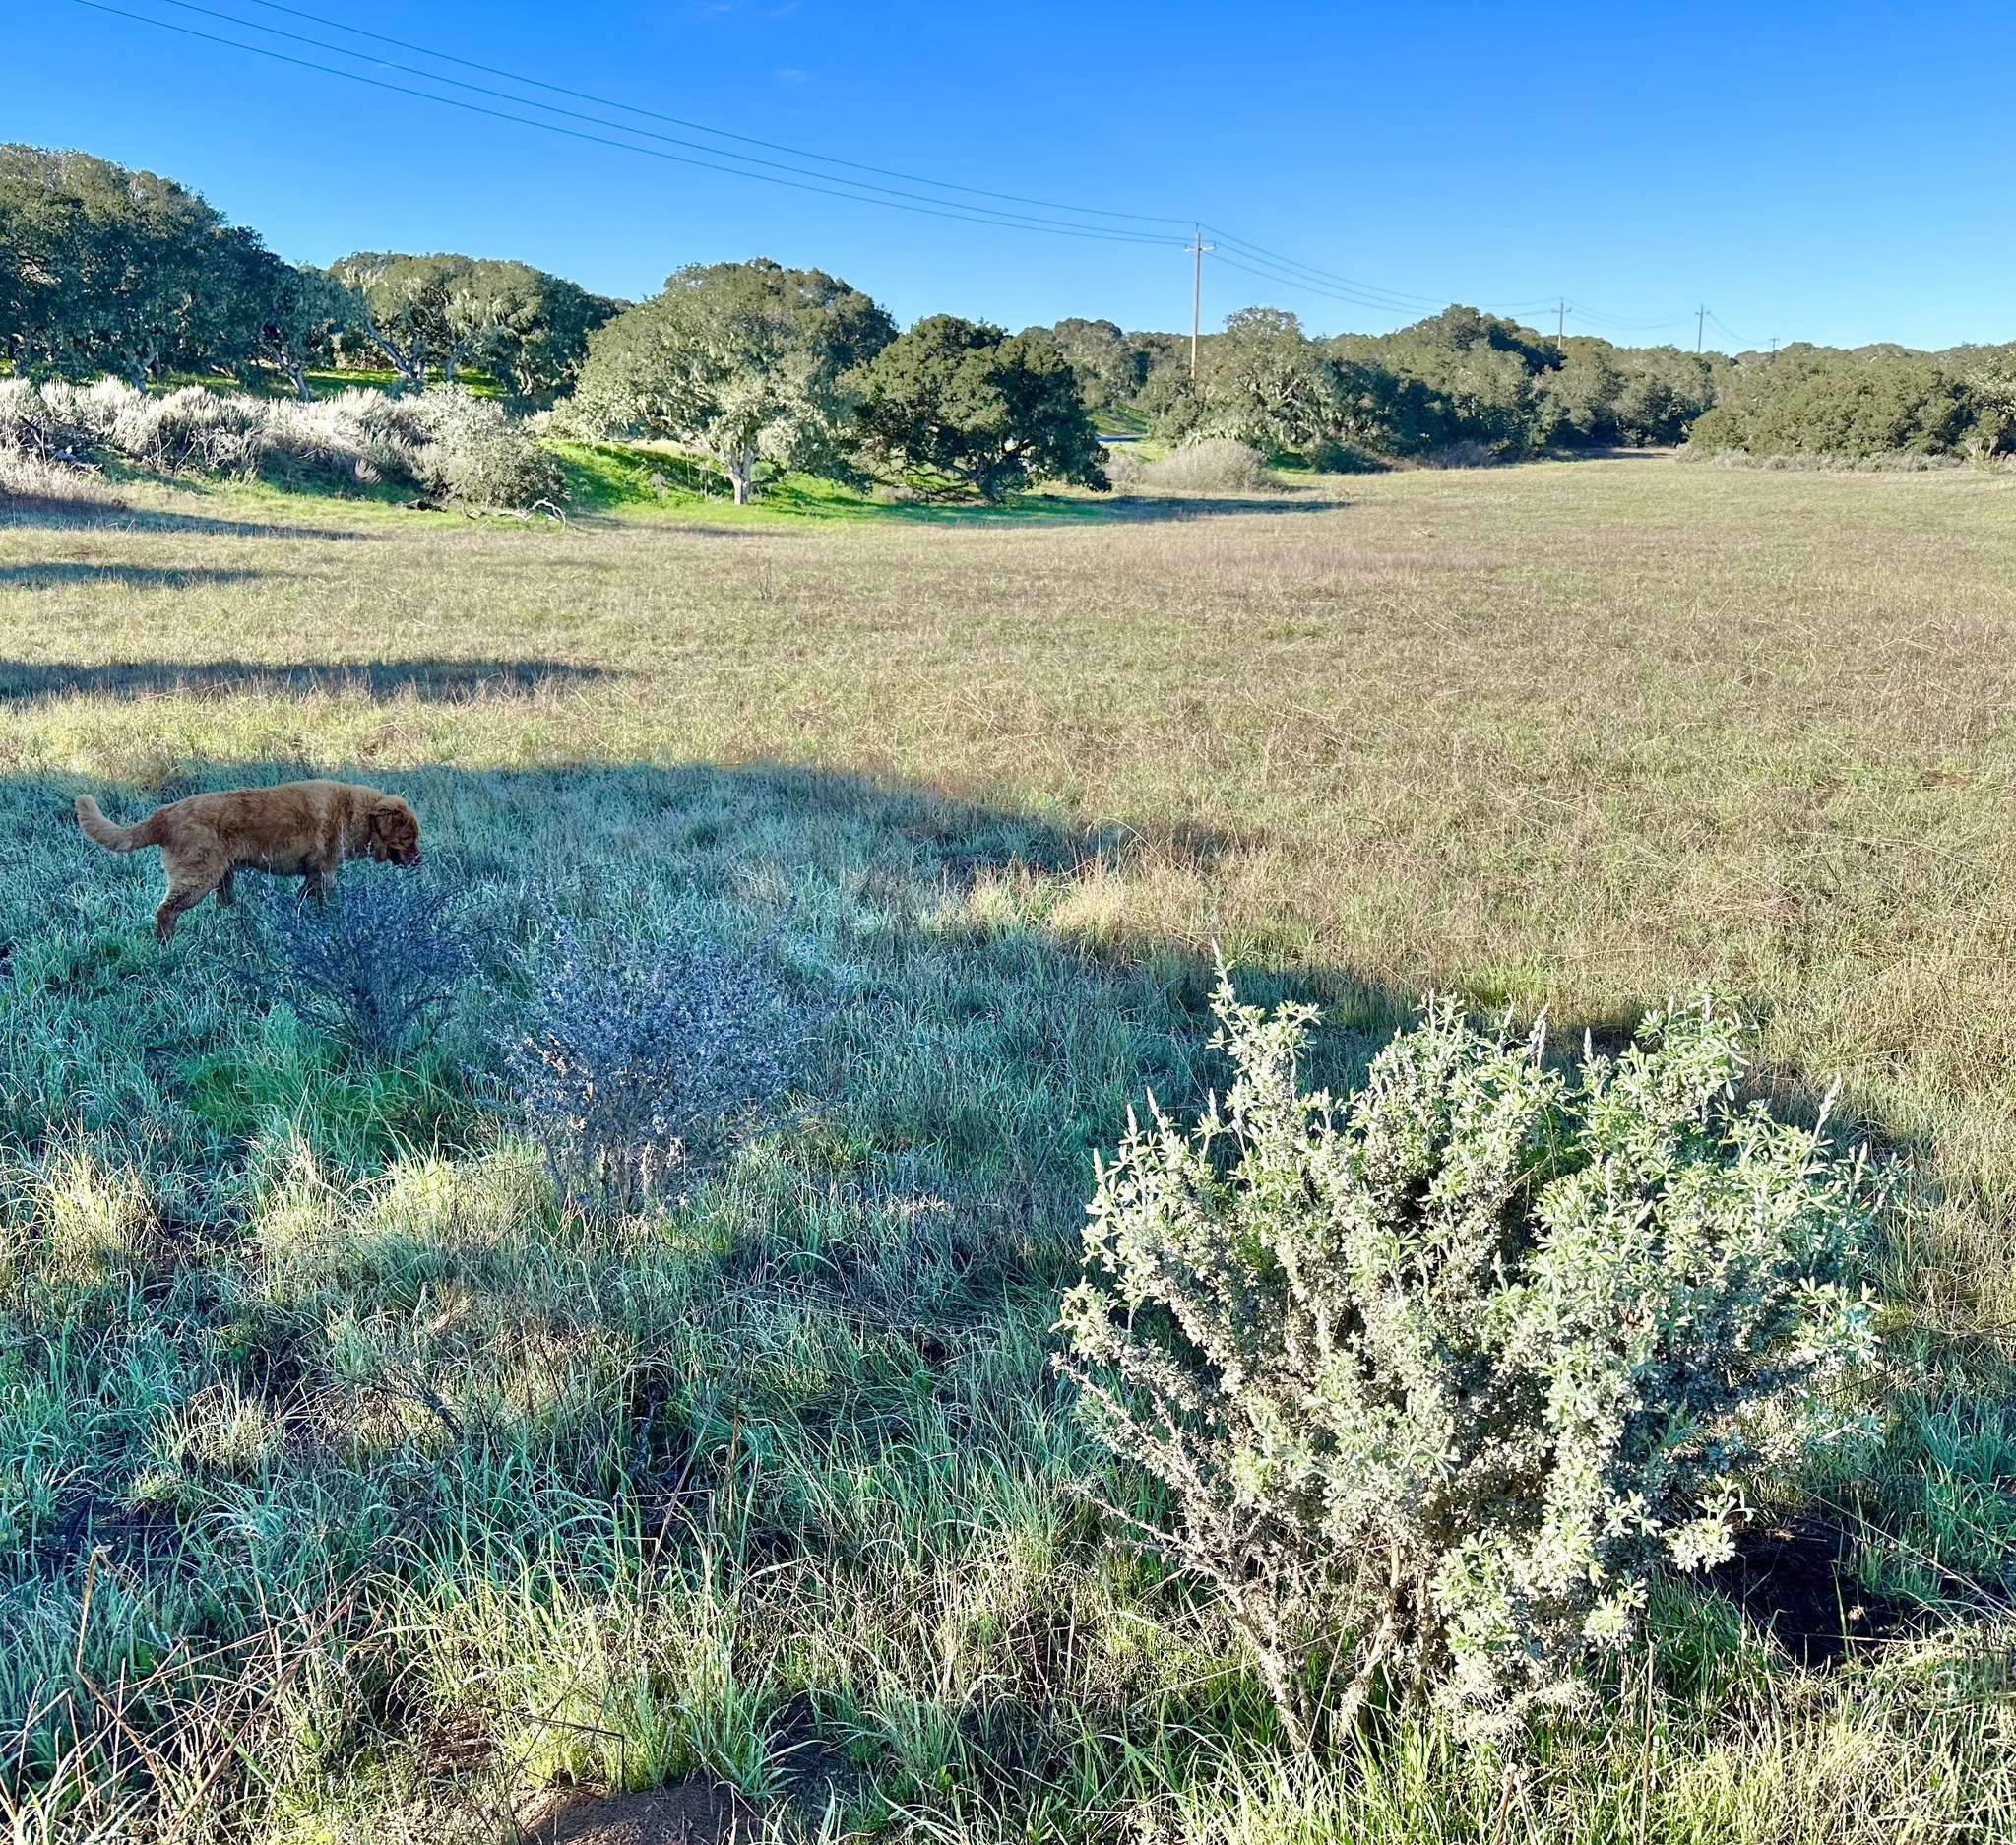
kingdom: Plantae
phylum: Tracheophyta
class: Magnoliopsida
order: Fabales
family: Fabaceae
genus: Lupinus
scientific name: Lupinus chamissonis
